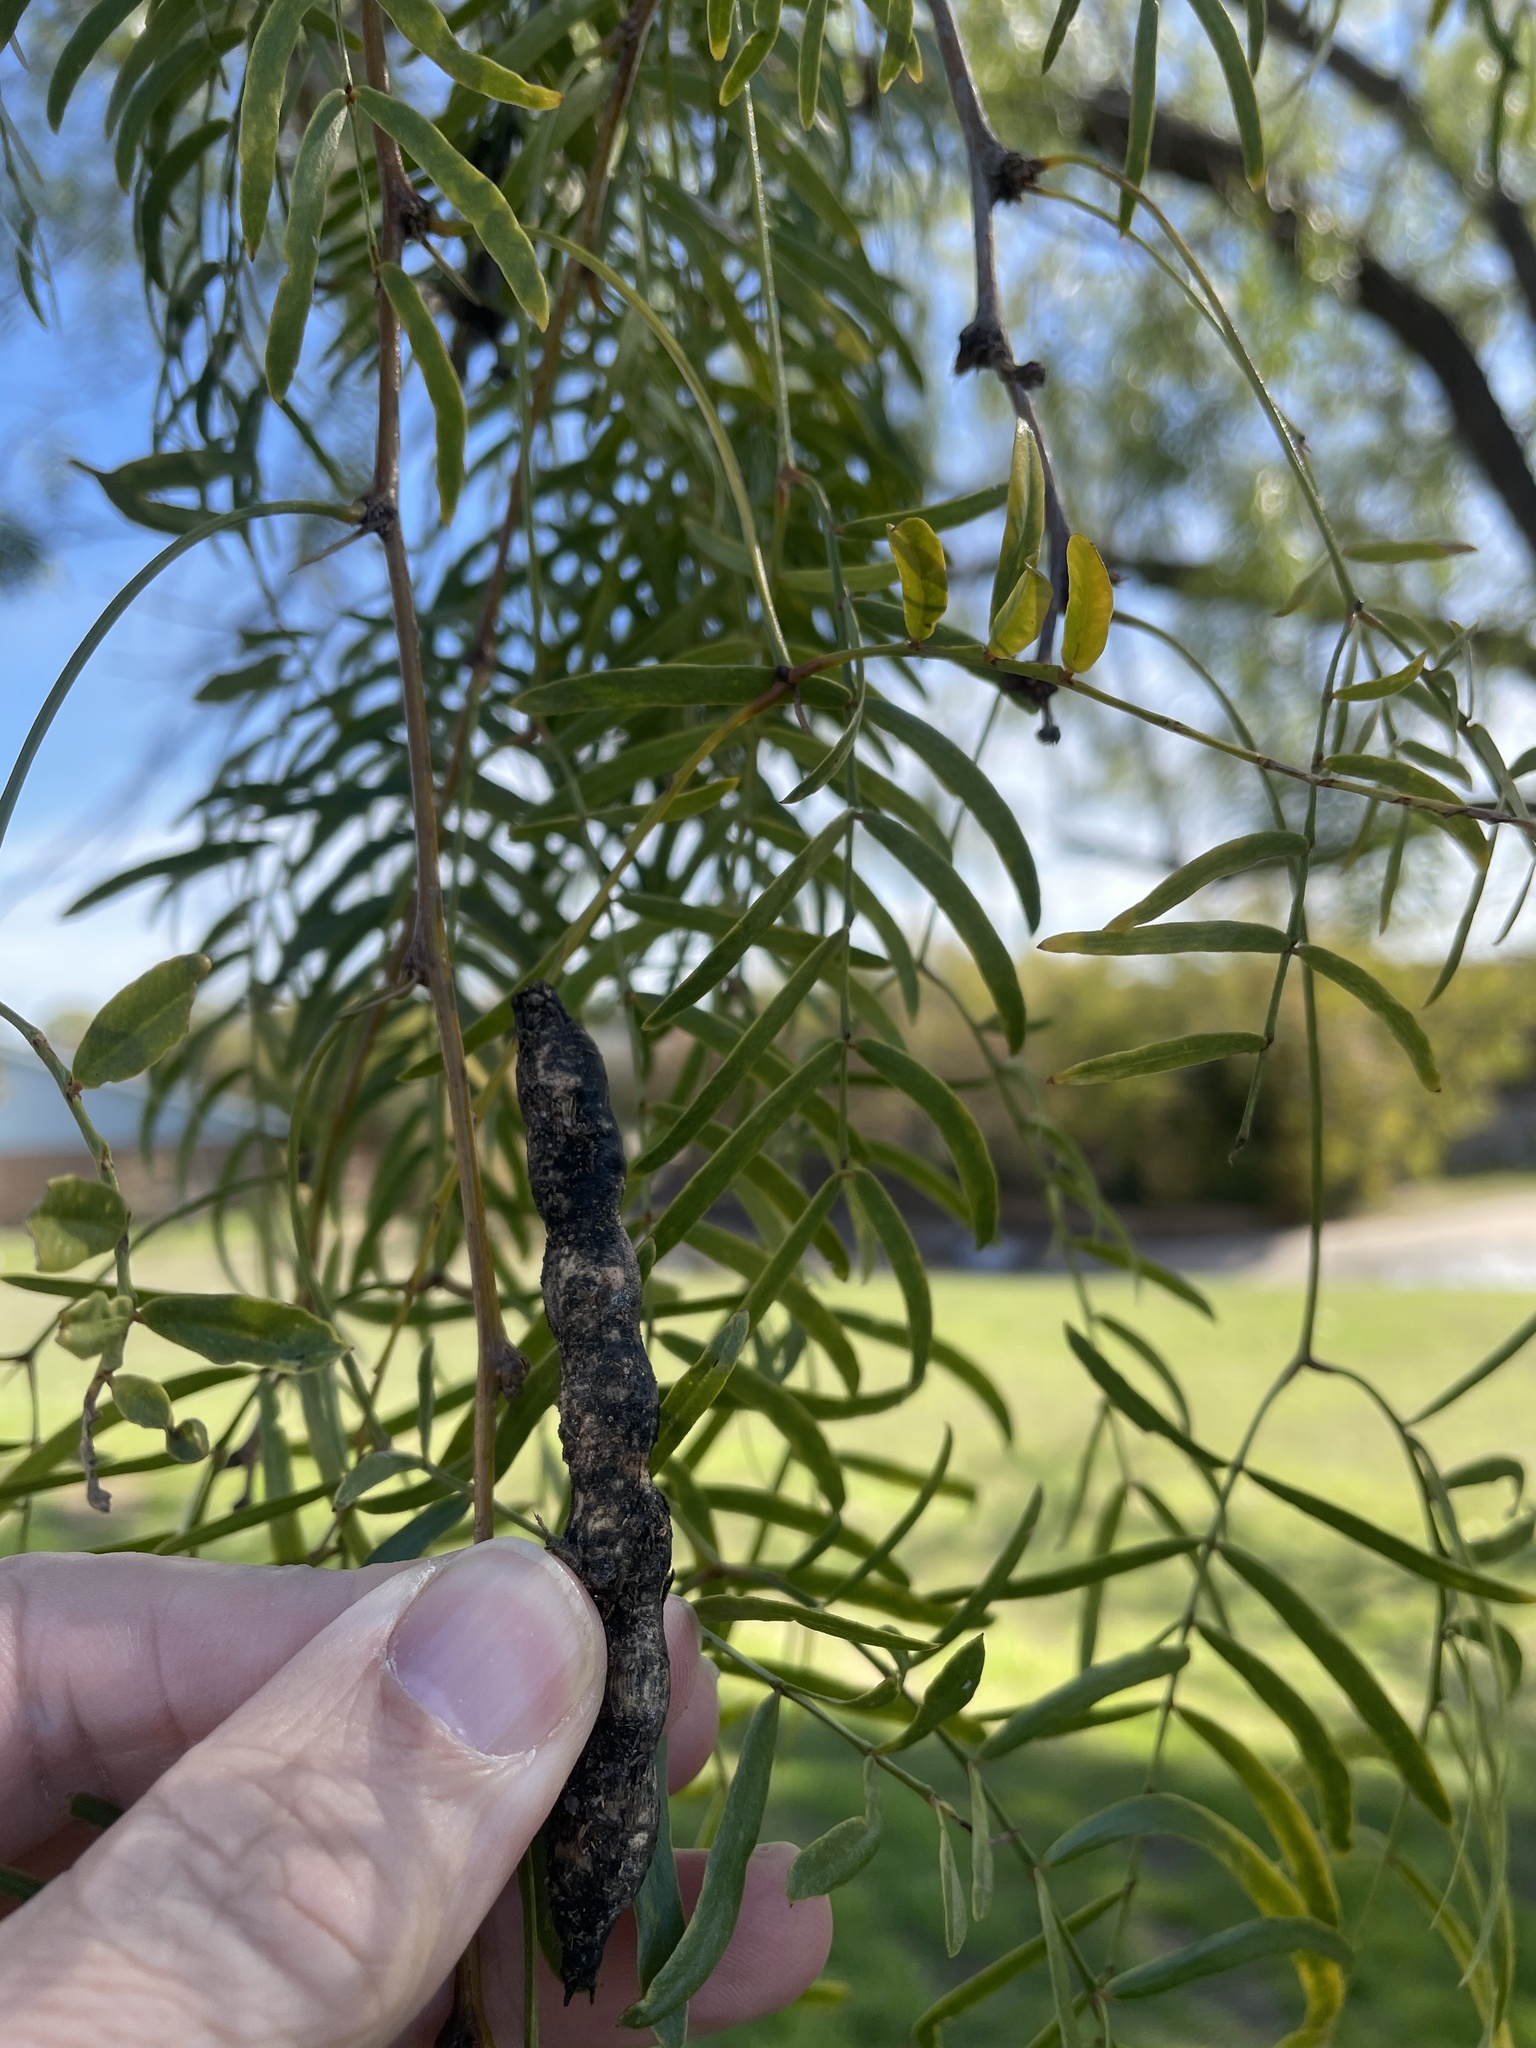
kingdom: Plantae
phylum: Tracheophyta
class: Magnoliopsida
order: Fabales
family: Fabaceae
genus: Prosopis
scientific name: Prosopis glandulosa
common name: Honey mesquite
